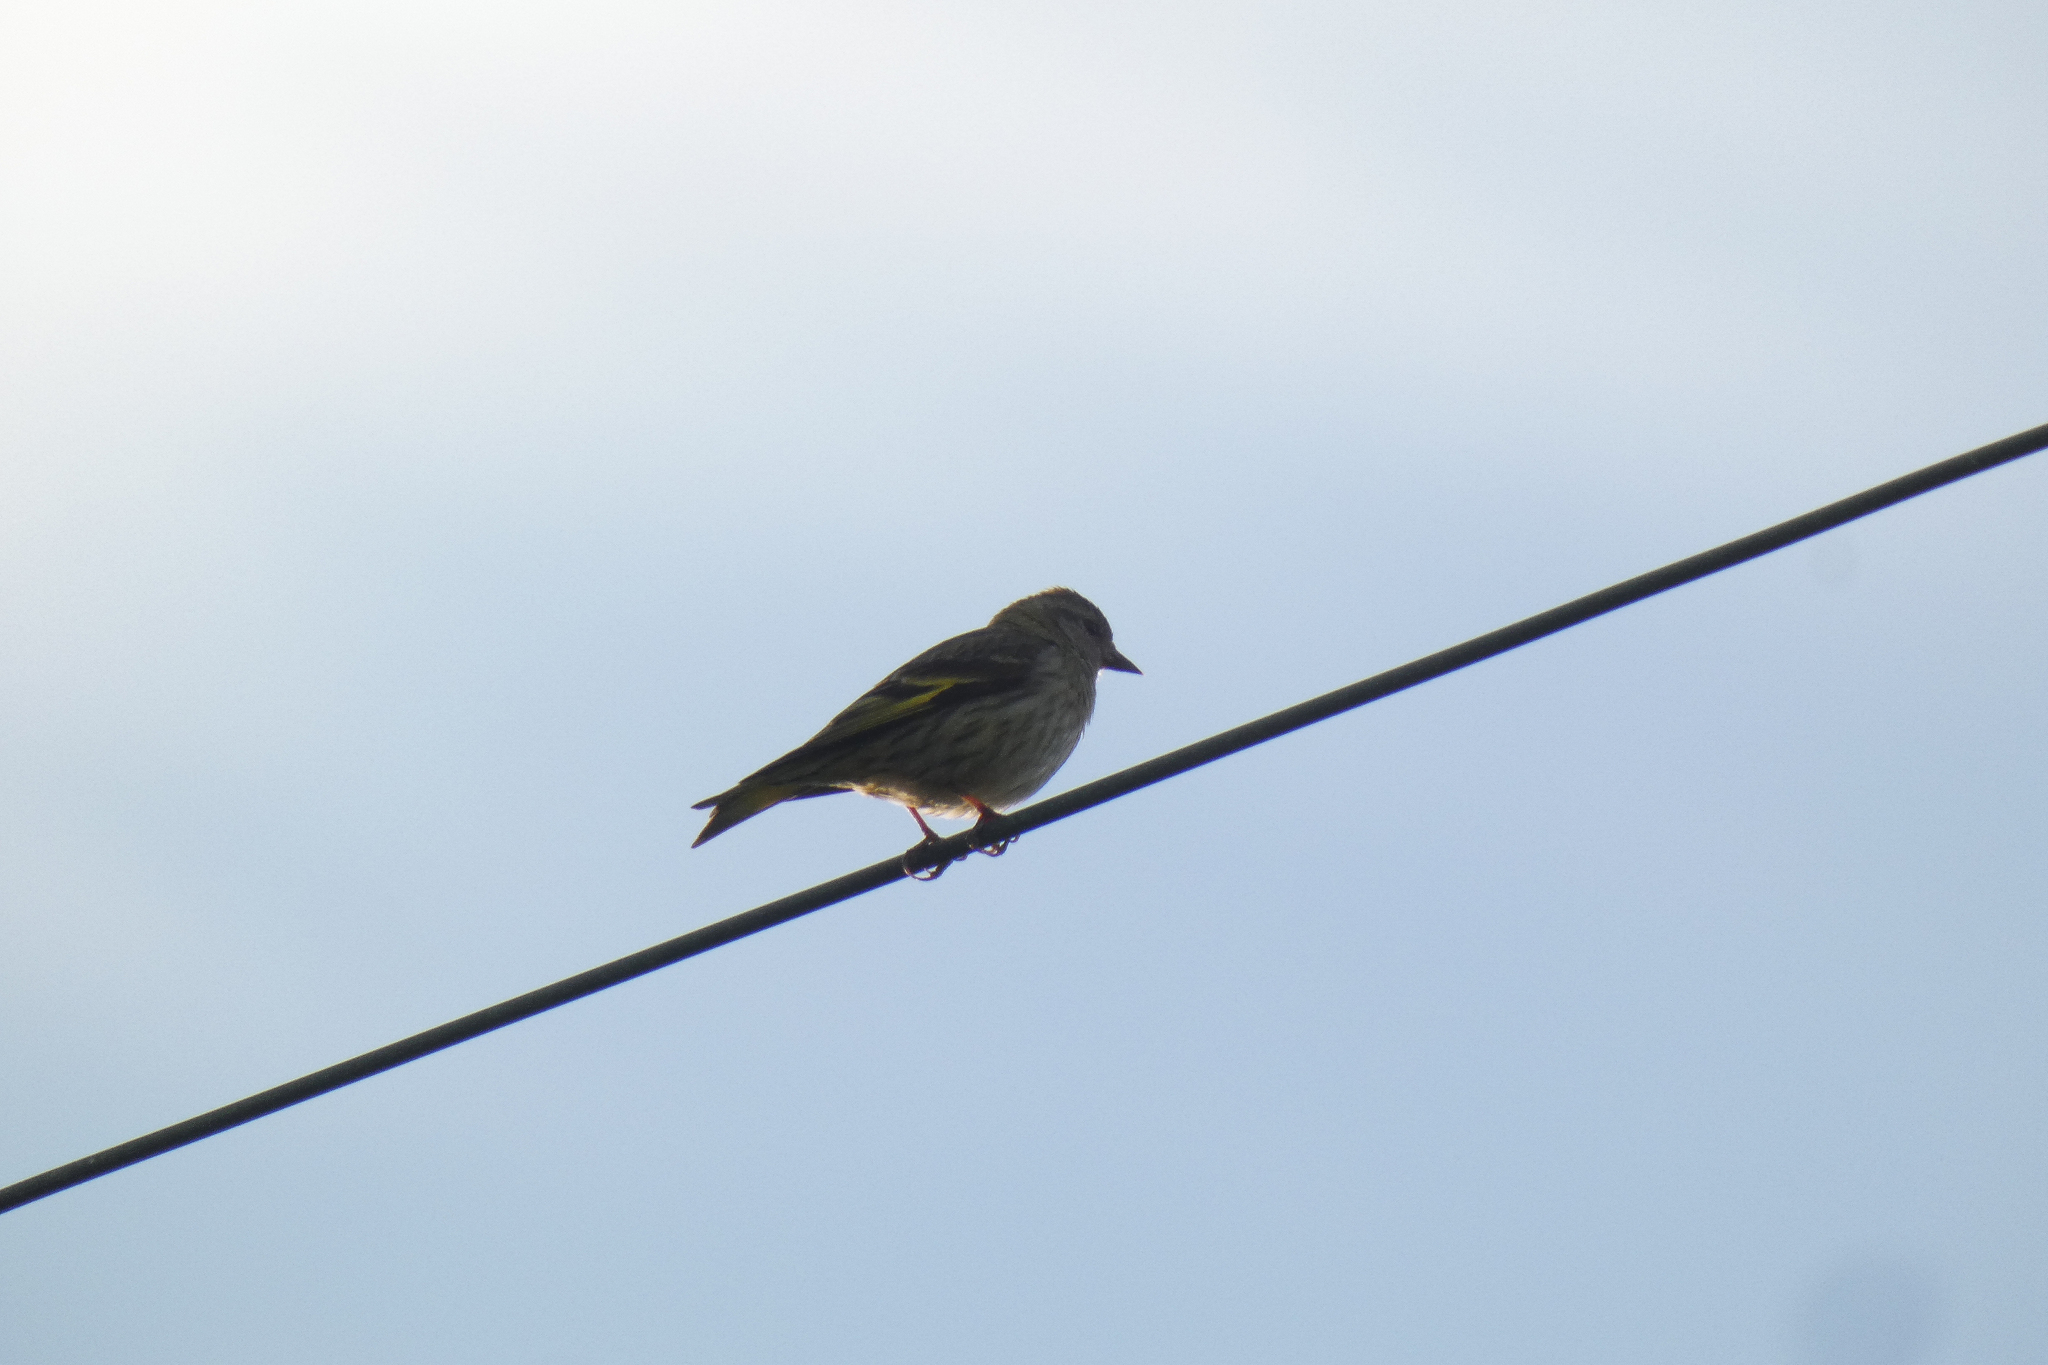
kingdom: Animalia
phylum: Chordata
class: Aves
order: Passeriformes
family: Fringillidae
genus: Spinus
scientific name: Spinus pinus
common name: Pine siskin
